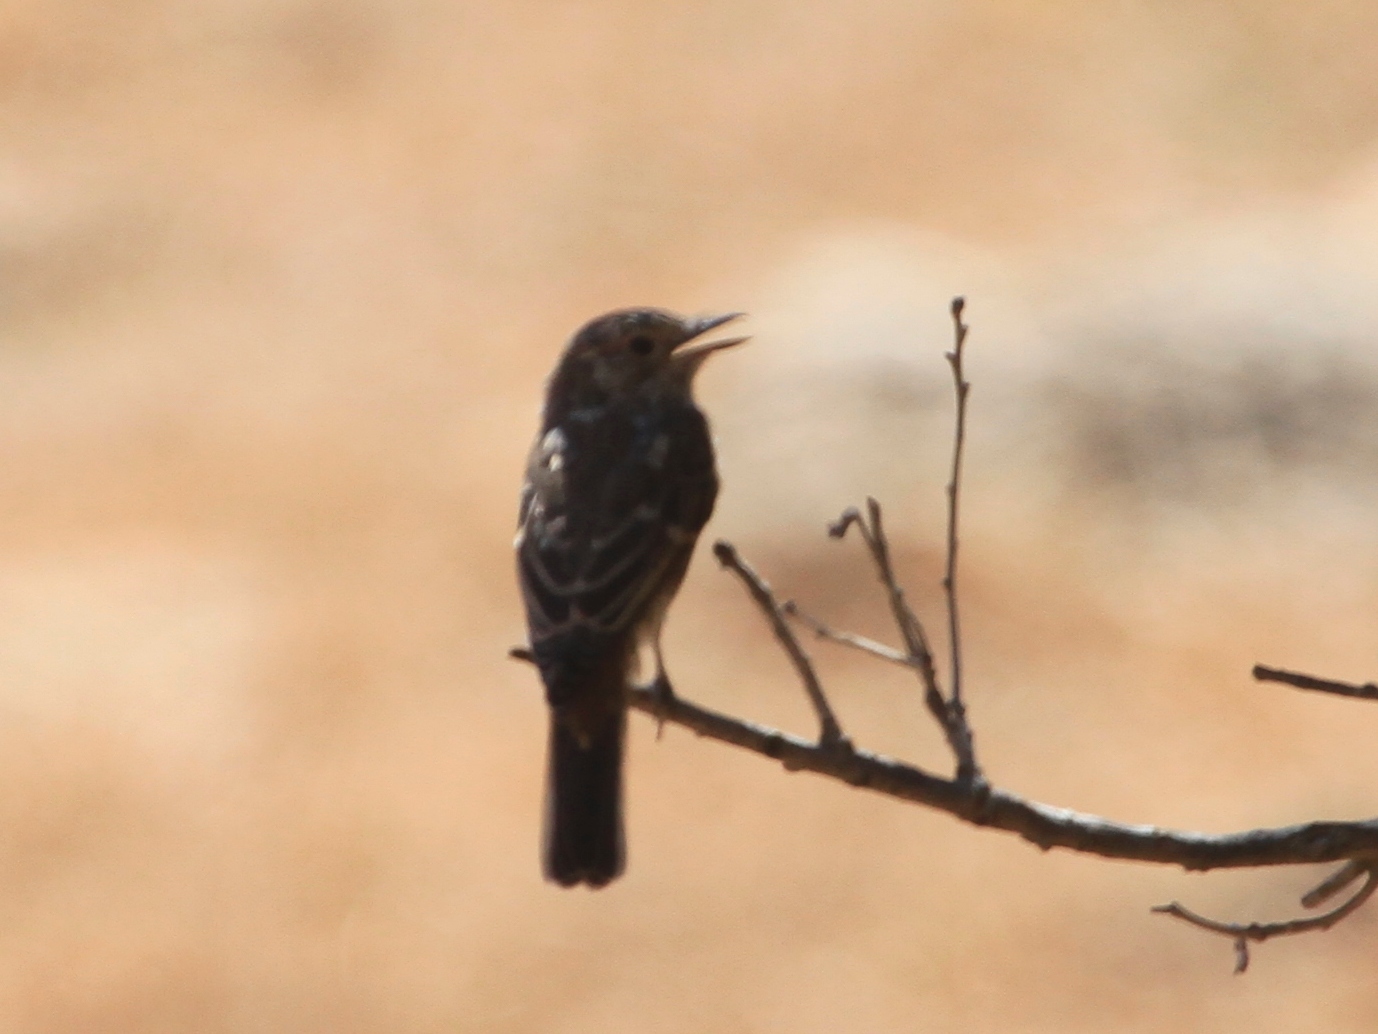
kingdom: Animalia
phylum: Chordata
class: Aves
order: Passeriformes
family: Muscicapidae
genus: Muscicapa
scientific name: Muscicapa striata
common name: Spotted flycatcher
